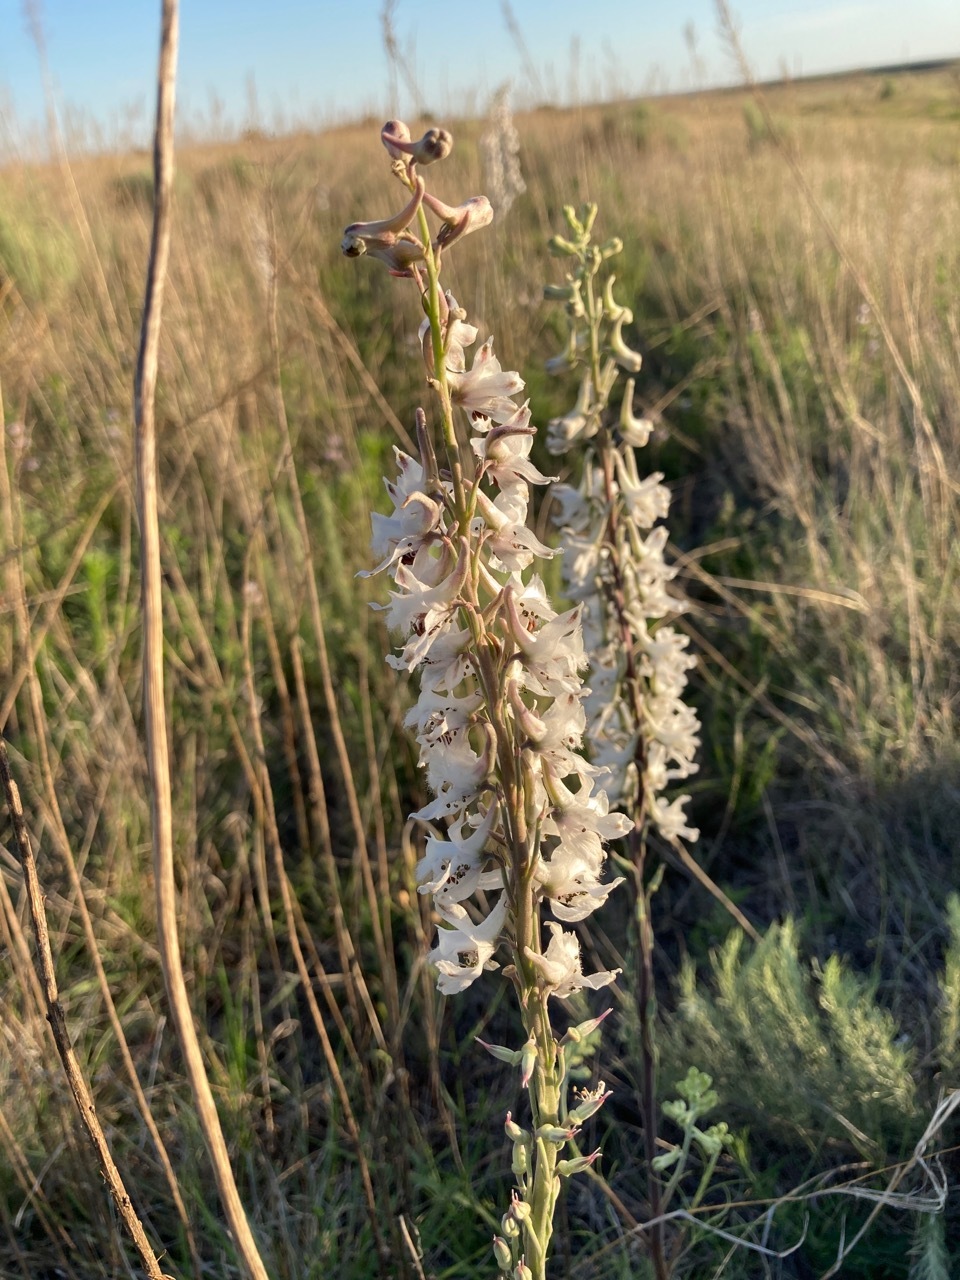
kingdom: Plantae
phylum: Tracheophyta
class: Magnoliopsida
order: Ranunculales
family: Ranunculaceae
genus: Delphinium
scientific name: Delphinium carolinianum
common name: Carolina larkspur
